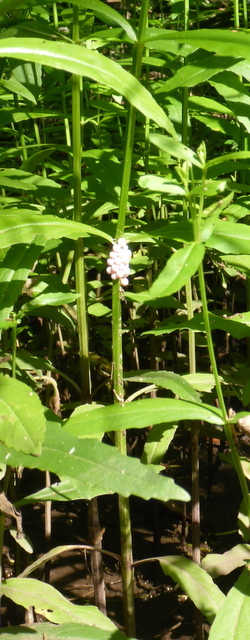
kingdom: Animalia
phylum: Mollusca
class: Gastropoda
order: Architaenioglossa
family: Ampullariidae
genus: Pomacea
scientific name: Pomacea paludosa
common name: Florida applesnail
